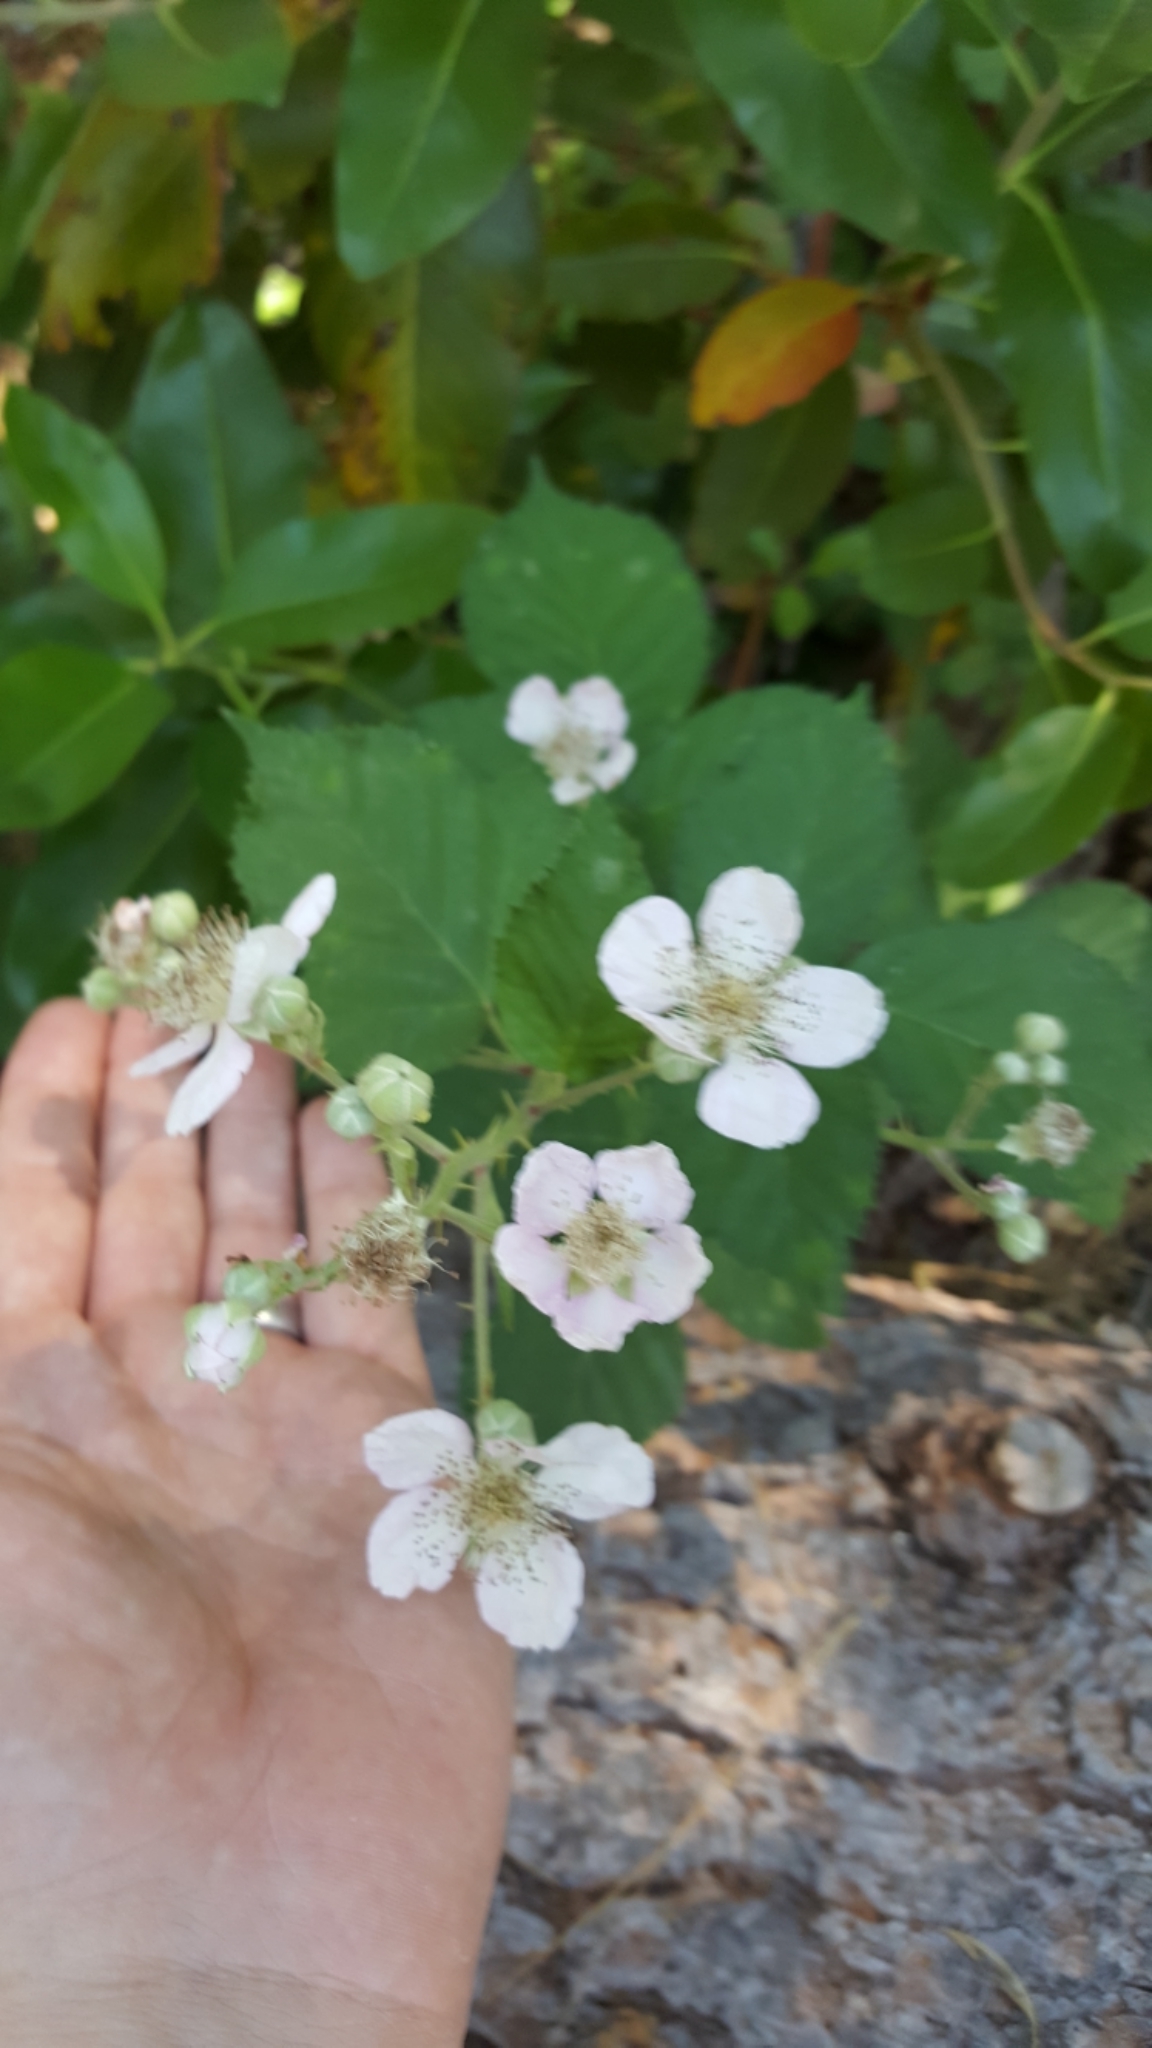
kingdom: Plantae
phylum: Tracheophyta
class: Magnoliopsida
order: Rosales
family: Rosaceae
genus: Rubus
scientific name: Rubus armeniacus
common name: Himalayan blackberry
